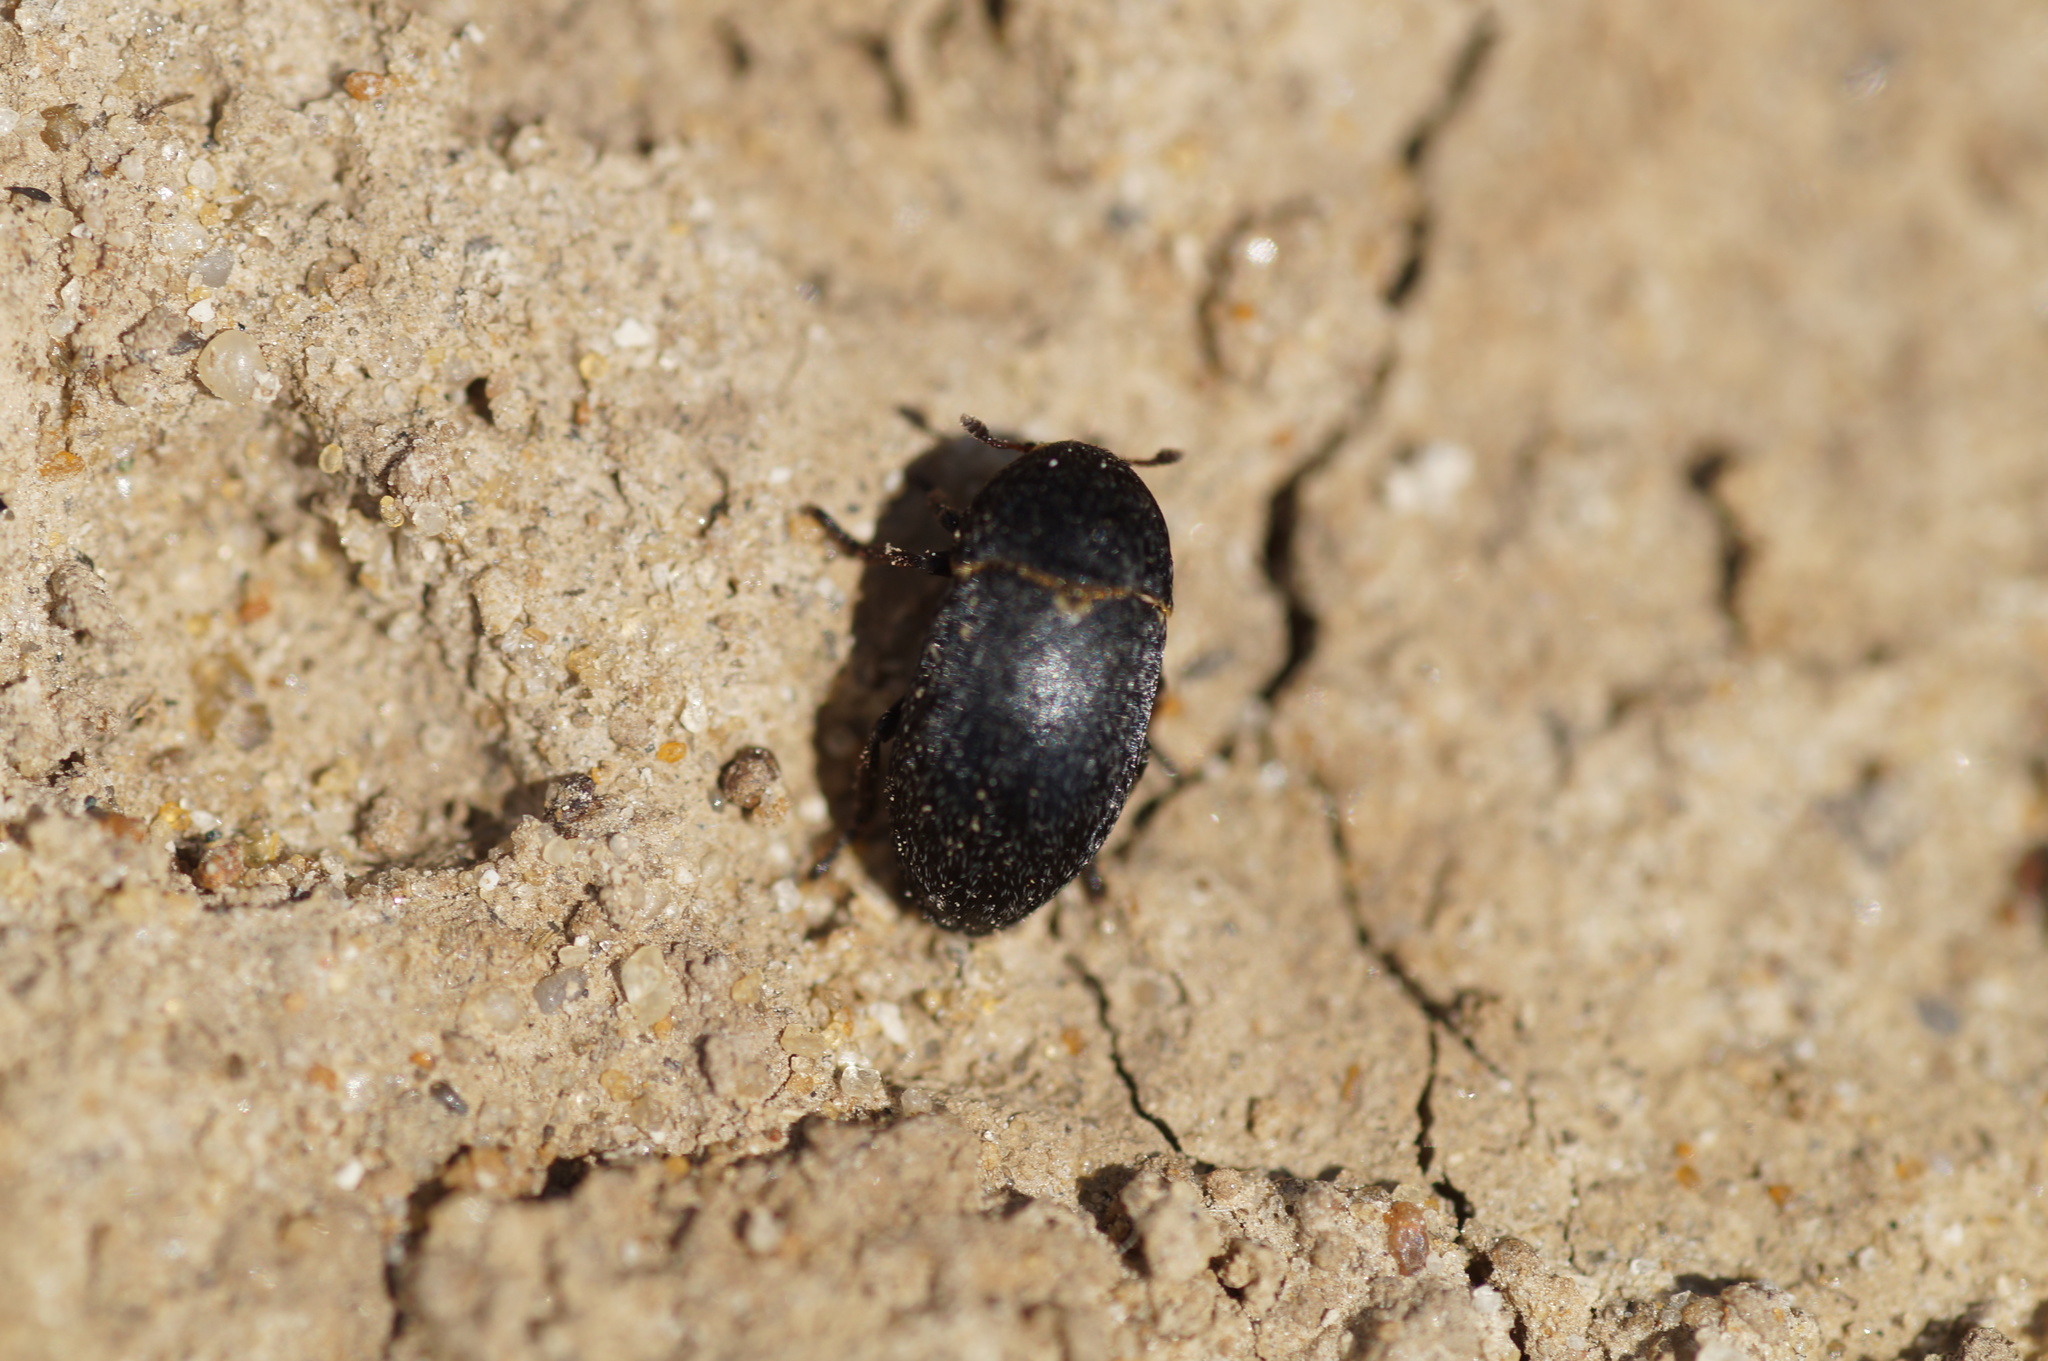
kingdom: Animalia
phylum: Arthropoda
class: Insecta
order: Coleoptera
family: Dermestidae
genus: Dermestes
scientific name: Dermestes laniarius
